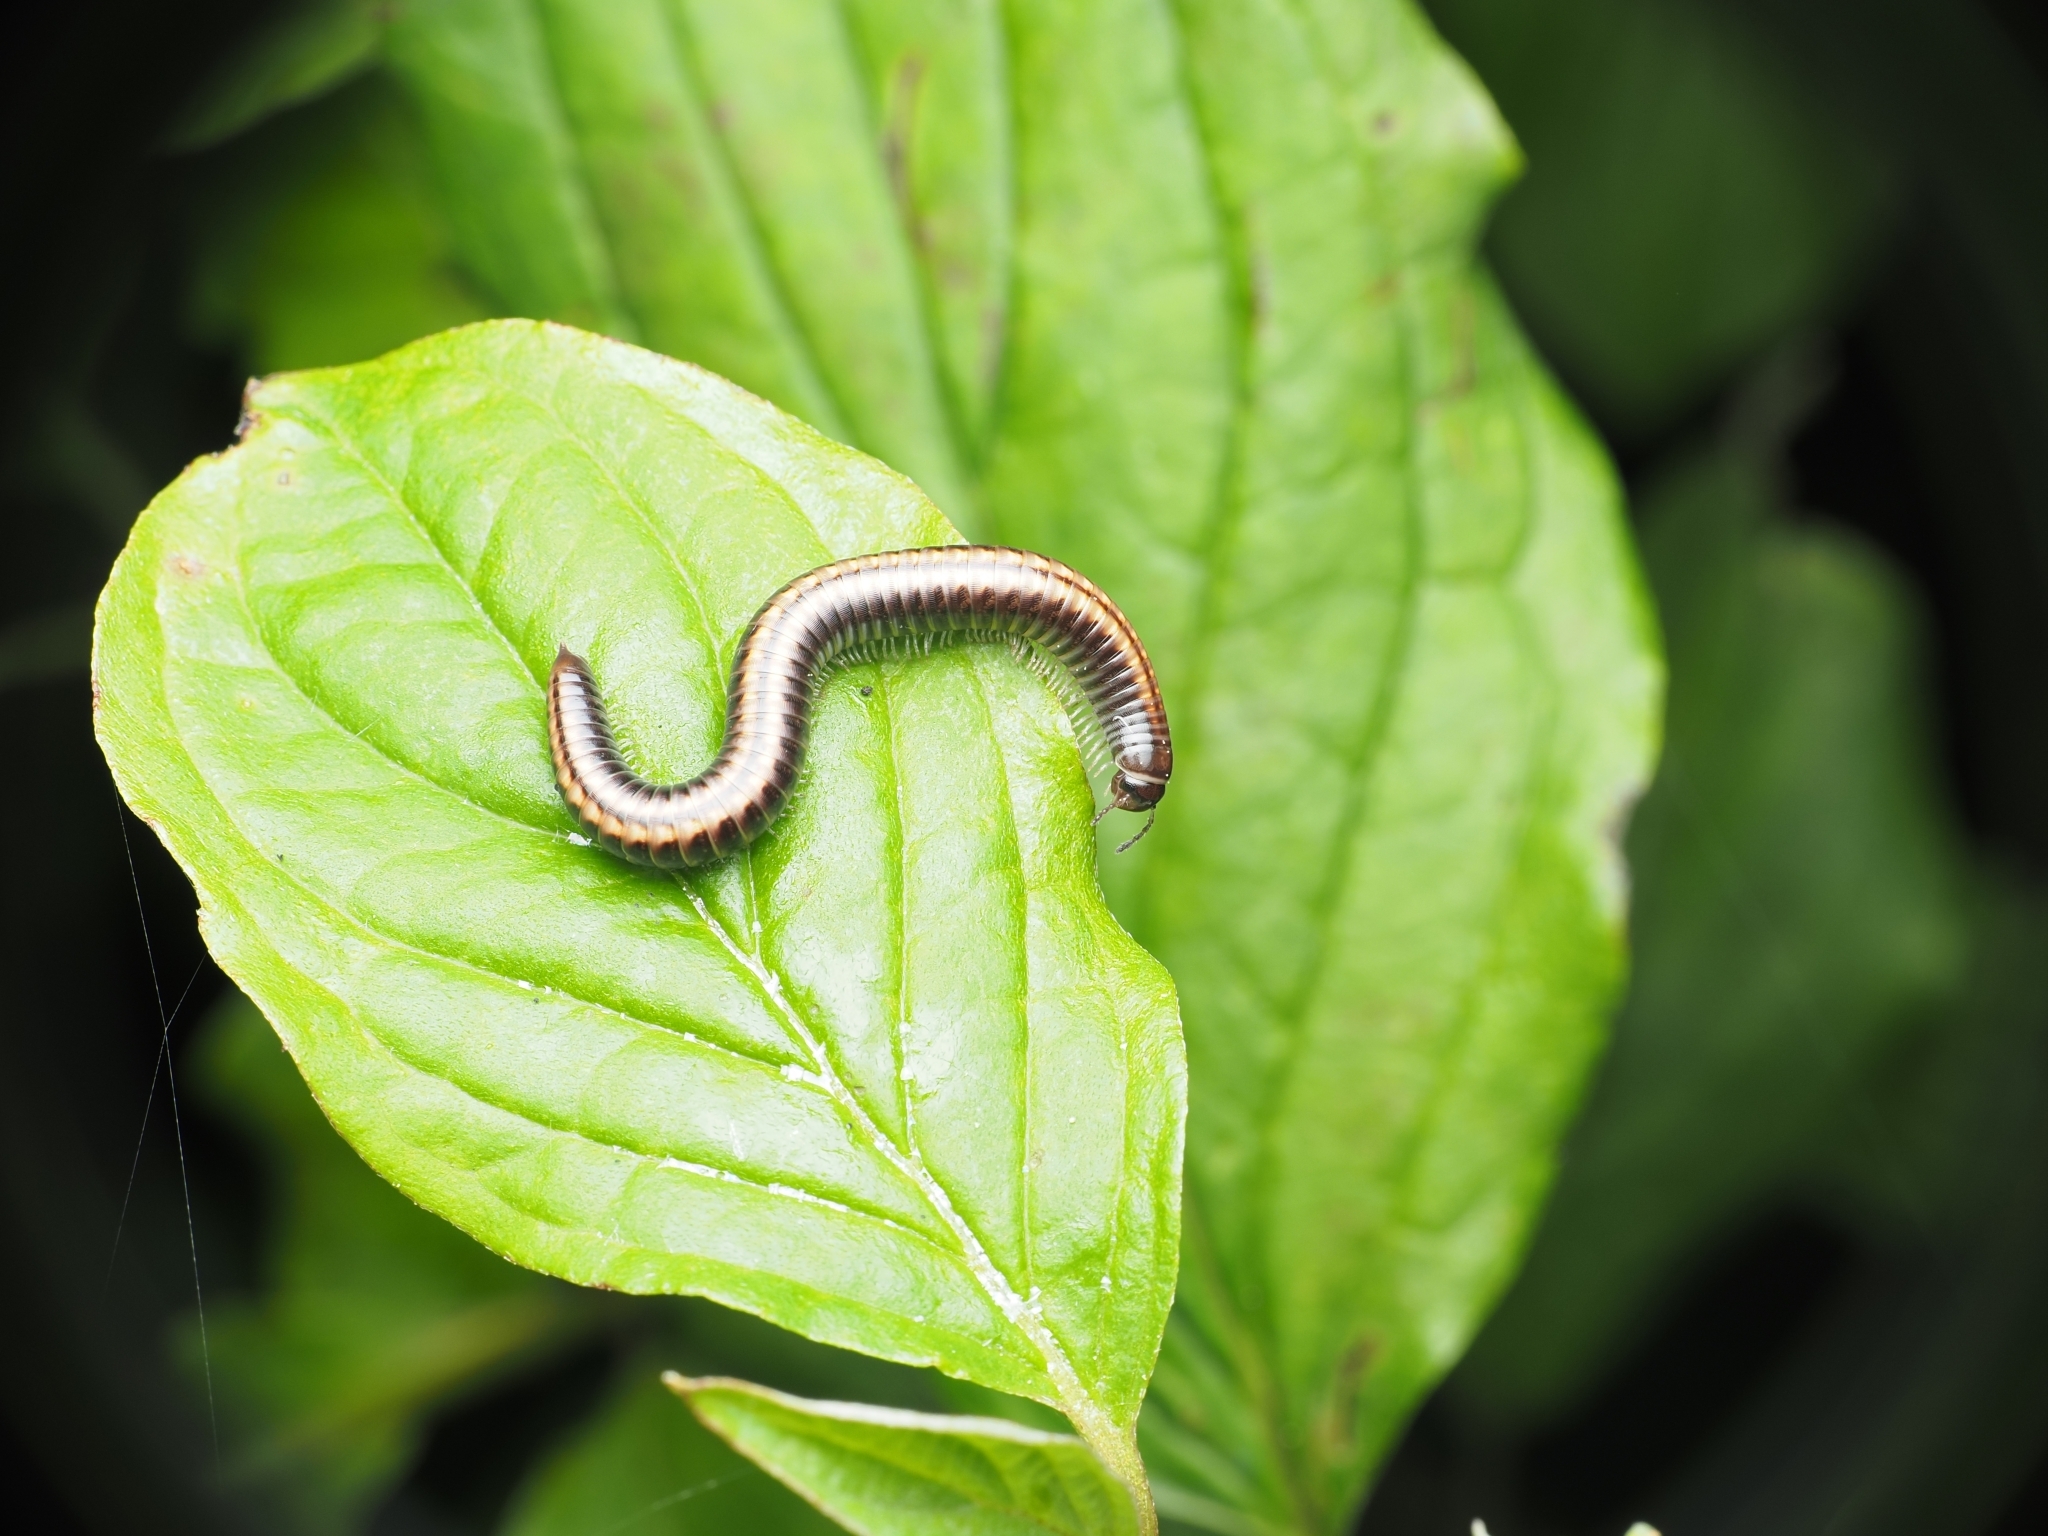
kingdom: Animalia
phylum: Arthropoda
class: Diplopoda
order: Julida
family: Julidae
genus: Ommatoiulus
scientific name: Ommatoiulus sabulosus
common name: Striped millipede
